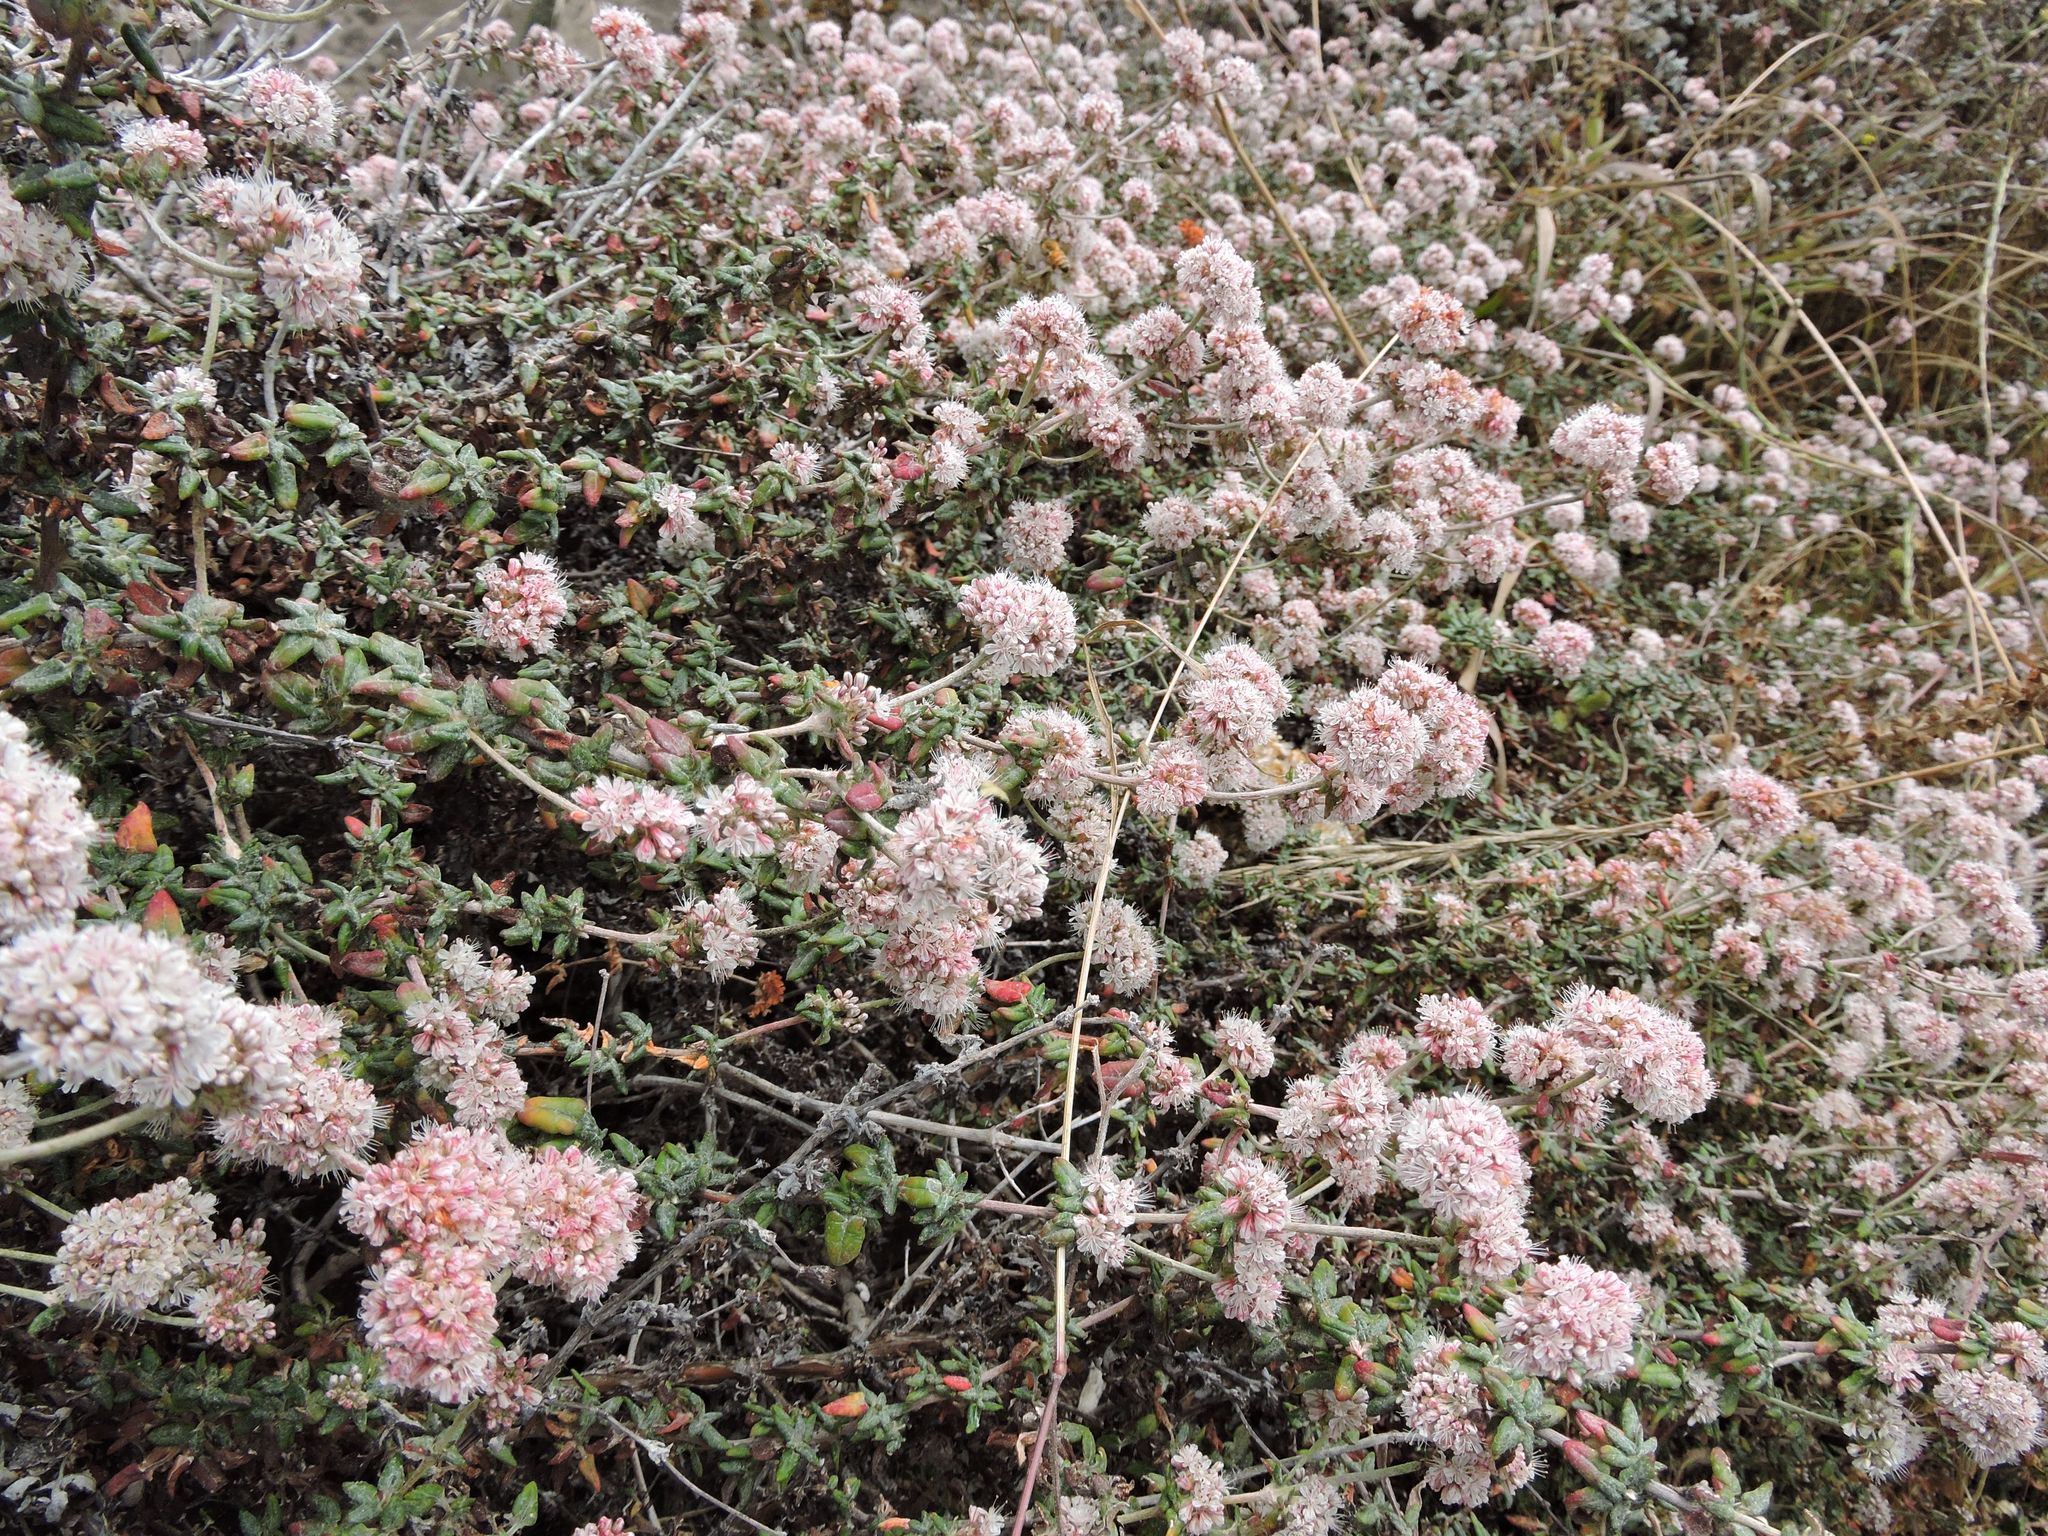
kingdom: Plantae
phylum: Tracheophyta
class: Magnoliopsida
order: Caryophyllales
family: Polygonaceae
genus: Eriogonum
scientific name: Eriogonum parvifolium
